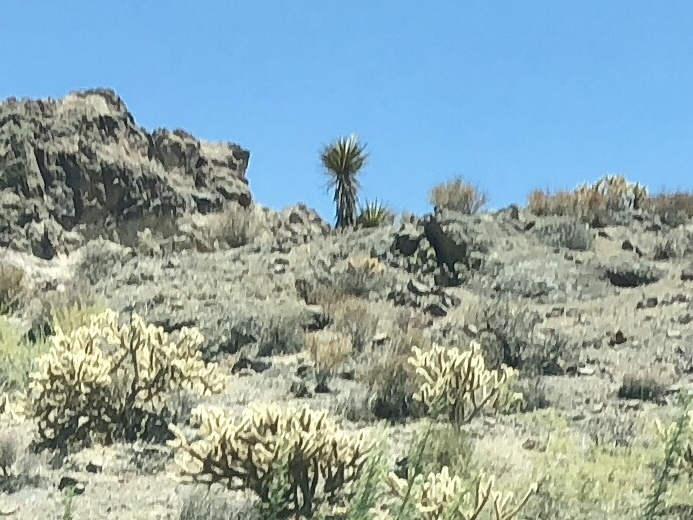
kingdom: Plantae
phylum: Tracheophyta
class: Liliopsida
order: Asparagales
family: Asparagaceae
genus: Yucca
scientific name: Yucca schidigera
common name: Mojave yucca
